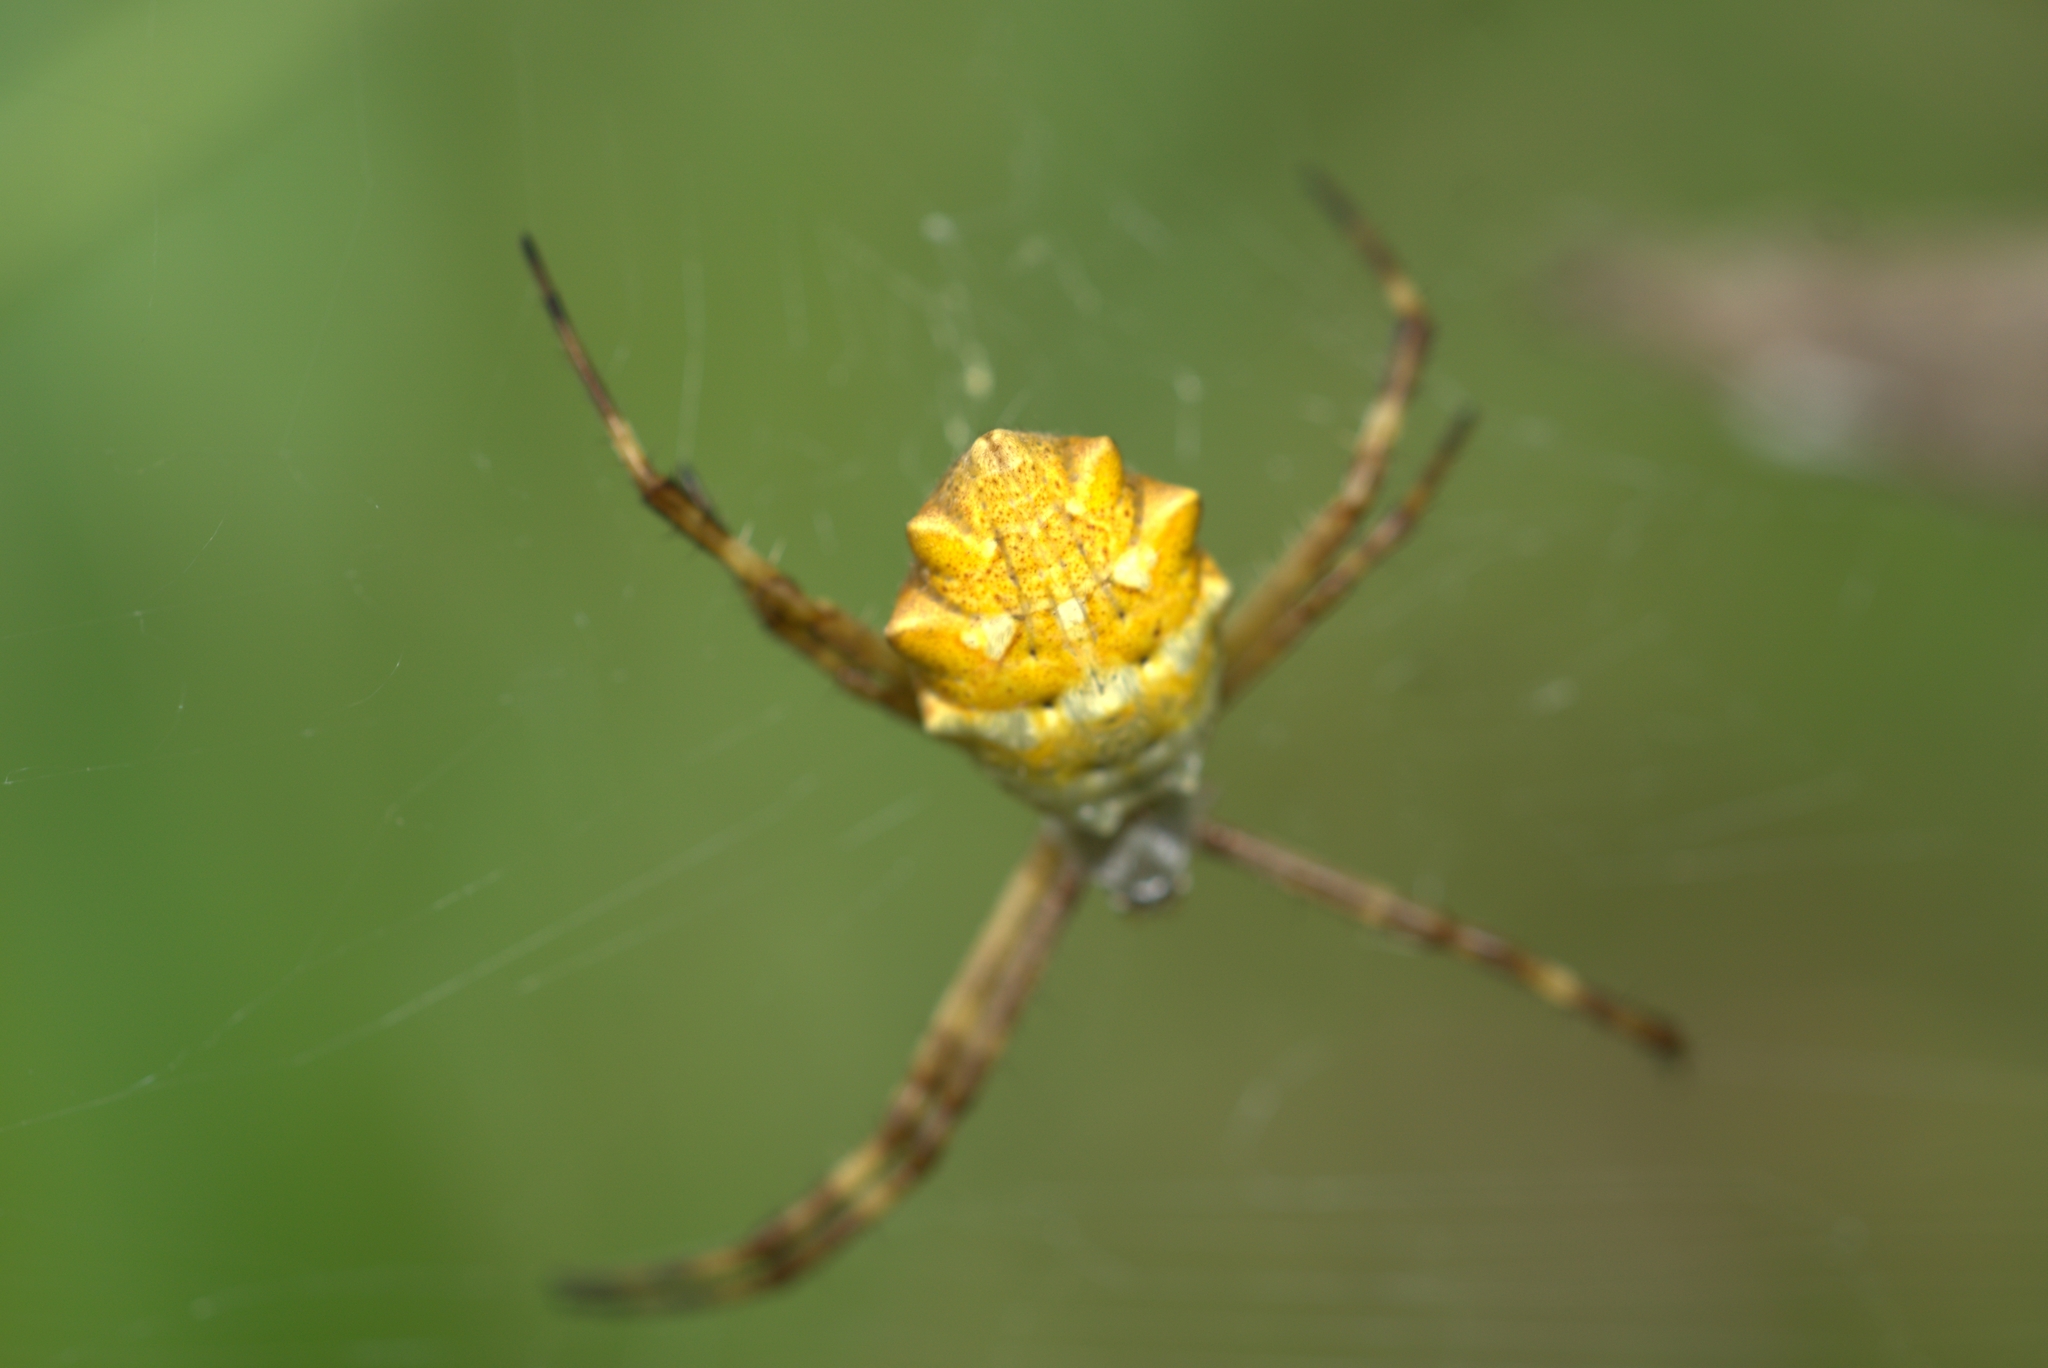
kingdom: Animalia
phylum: Arthropoda
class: Arachnida
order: Araneae
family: Araneidae
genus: Argiope
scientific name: Argiope argentata
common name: Orb weavers
